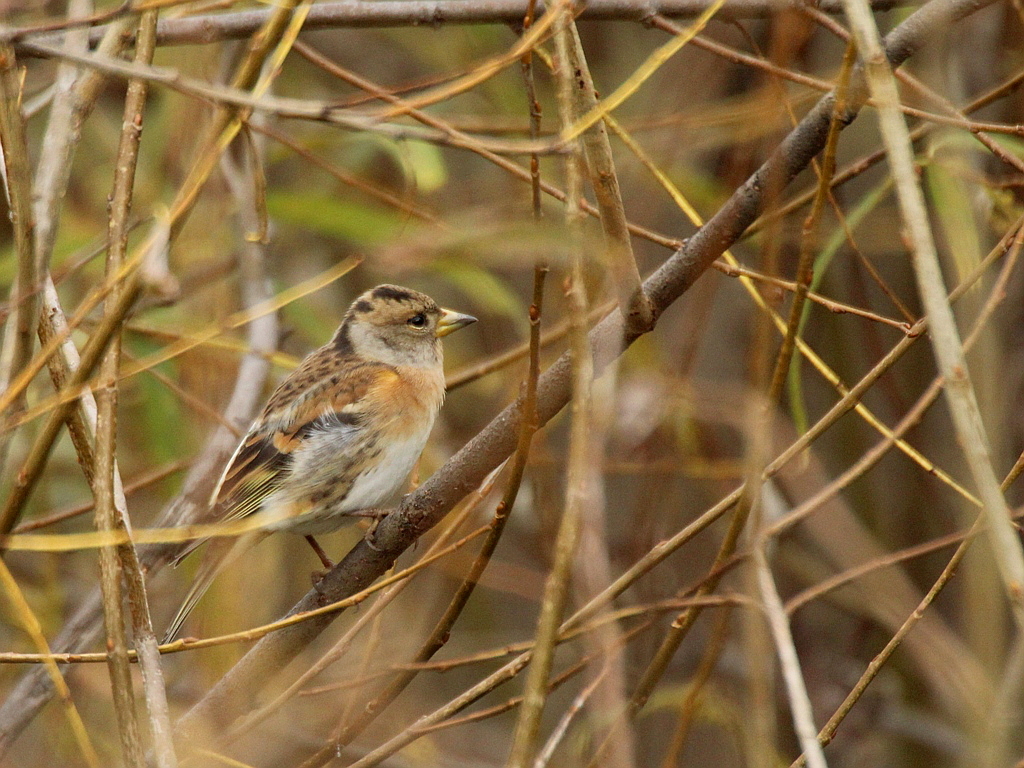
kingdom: Animalia
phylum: Chordata
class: Aves
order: Passeriformes
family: Fringillidae
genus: Fringilla
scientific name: Fringilla montifringilla
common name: Brambling
